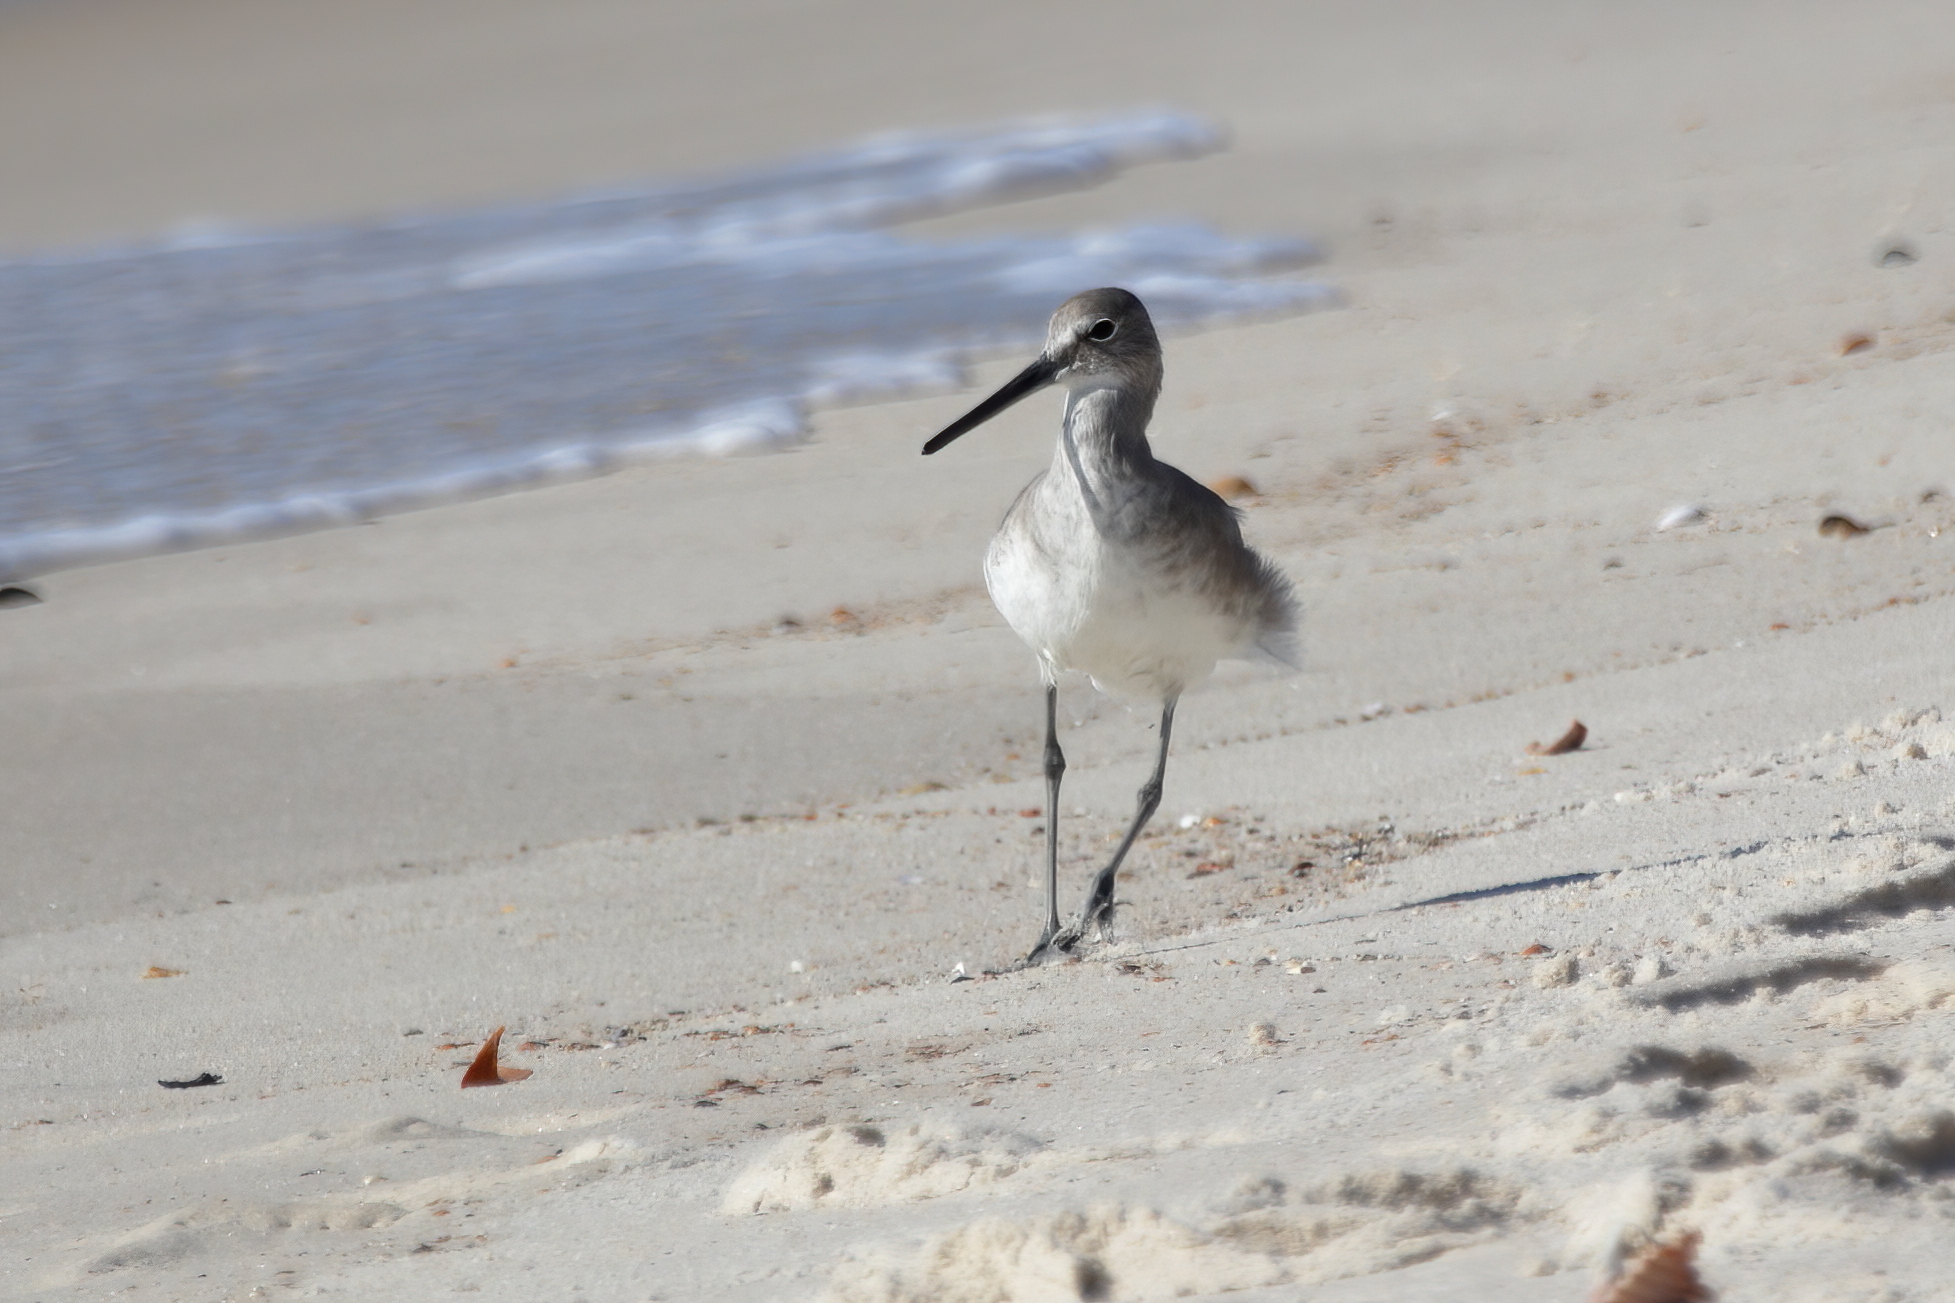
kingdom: Animalia
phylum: Chordata
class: Aves
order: Charadriiformes
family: Scolopacidae
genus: Tringa
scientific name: Tringa semipalmata
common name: Willet
